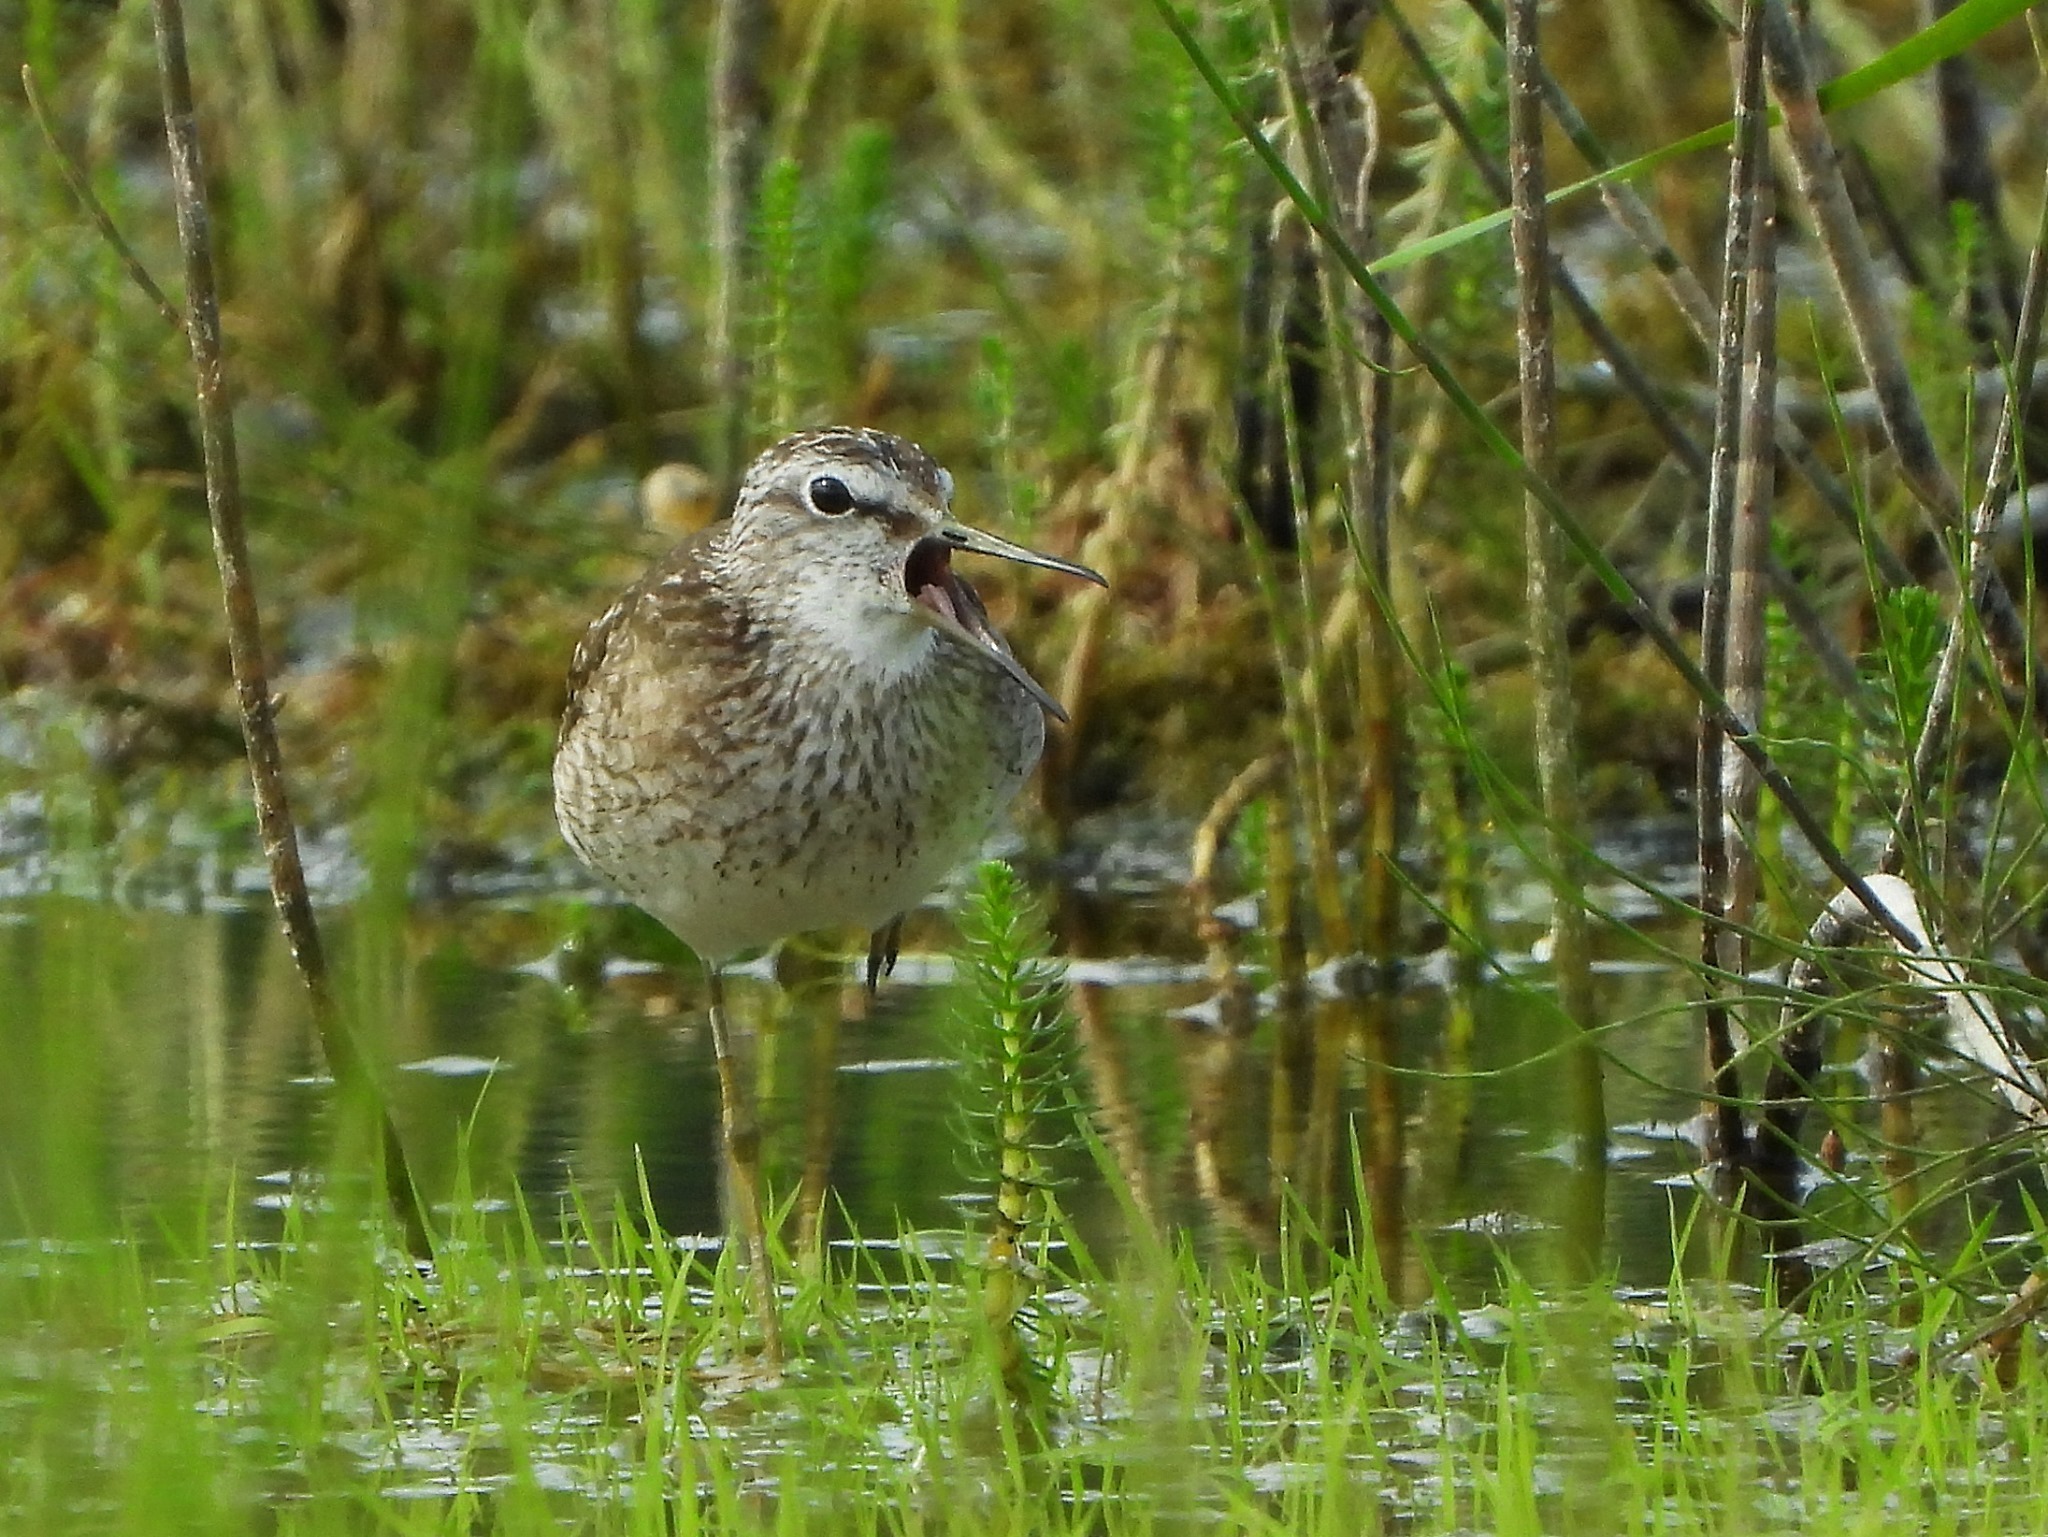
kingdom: Animalia
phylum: Chordata
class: Aves
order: Charadriiformes
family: Scolopacidae
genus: Tringa
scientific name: Tringa glareola
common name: Wood sandpiper
